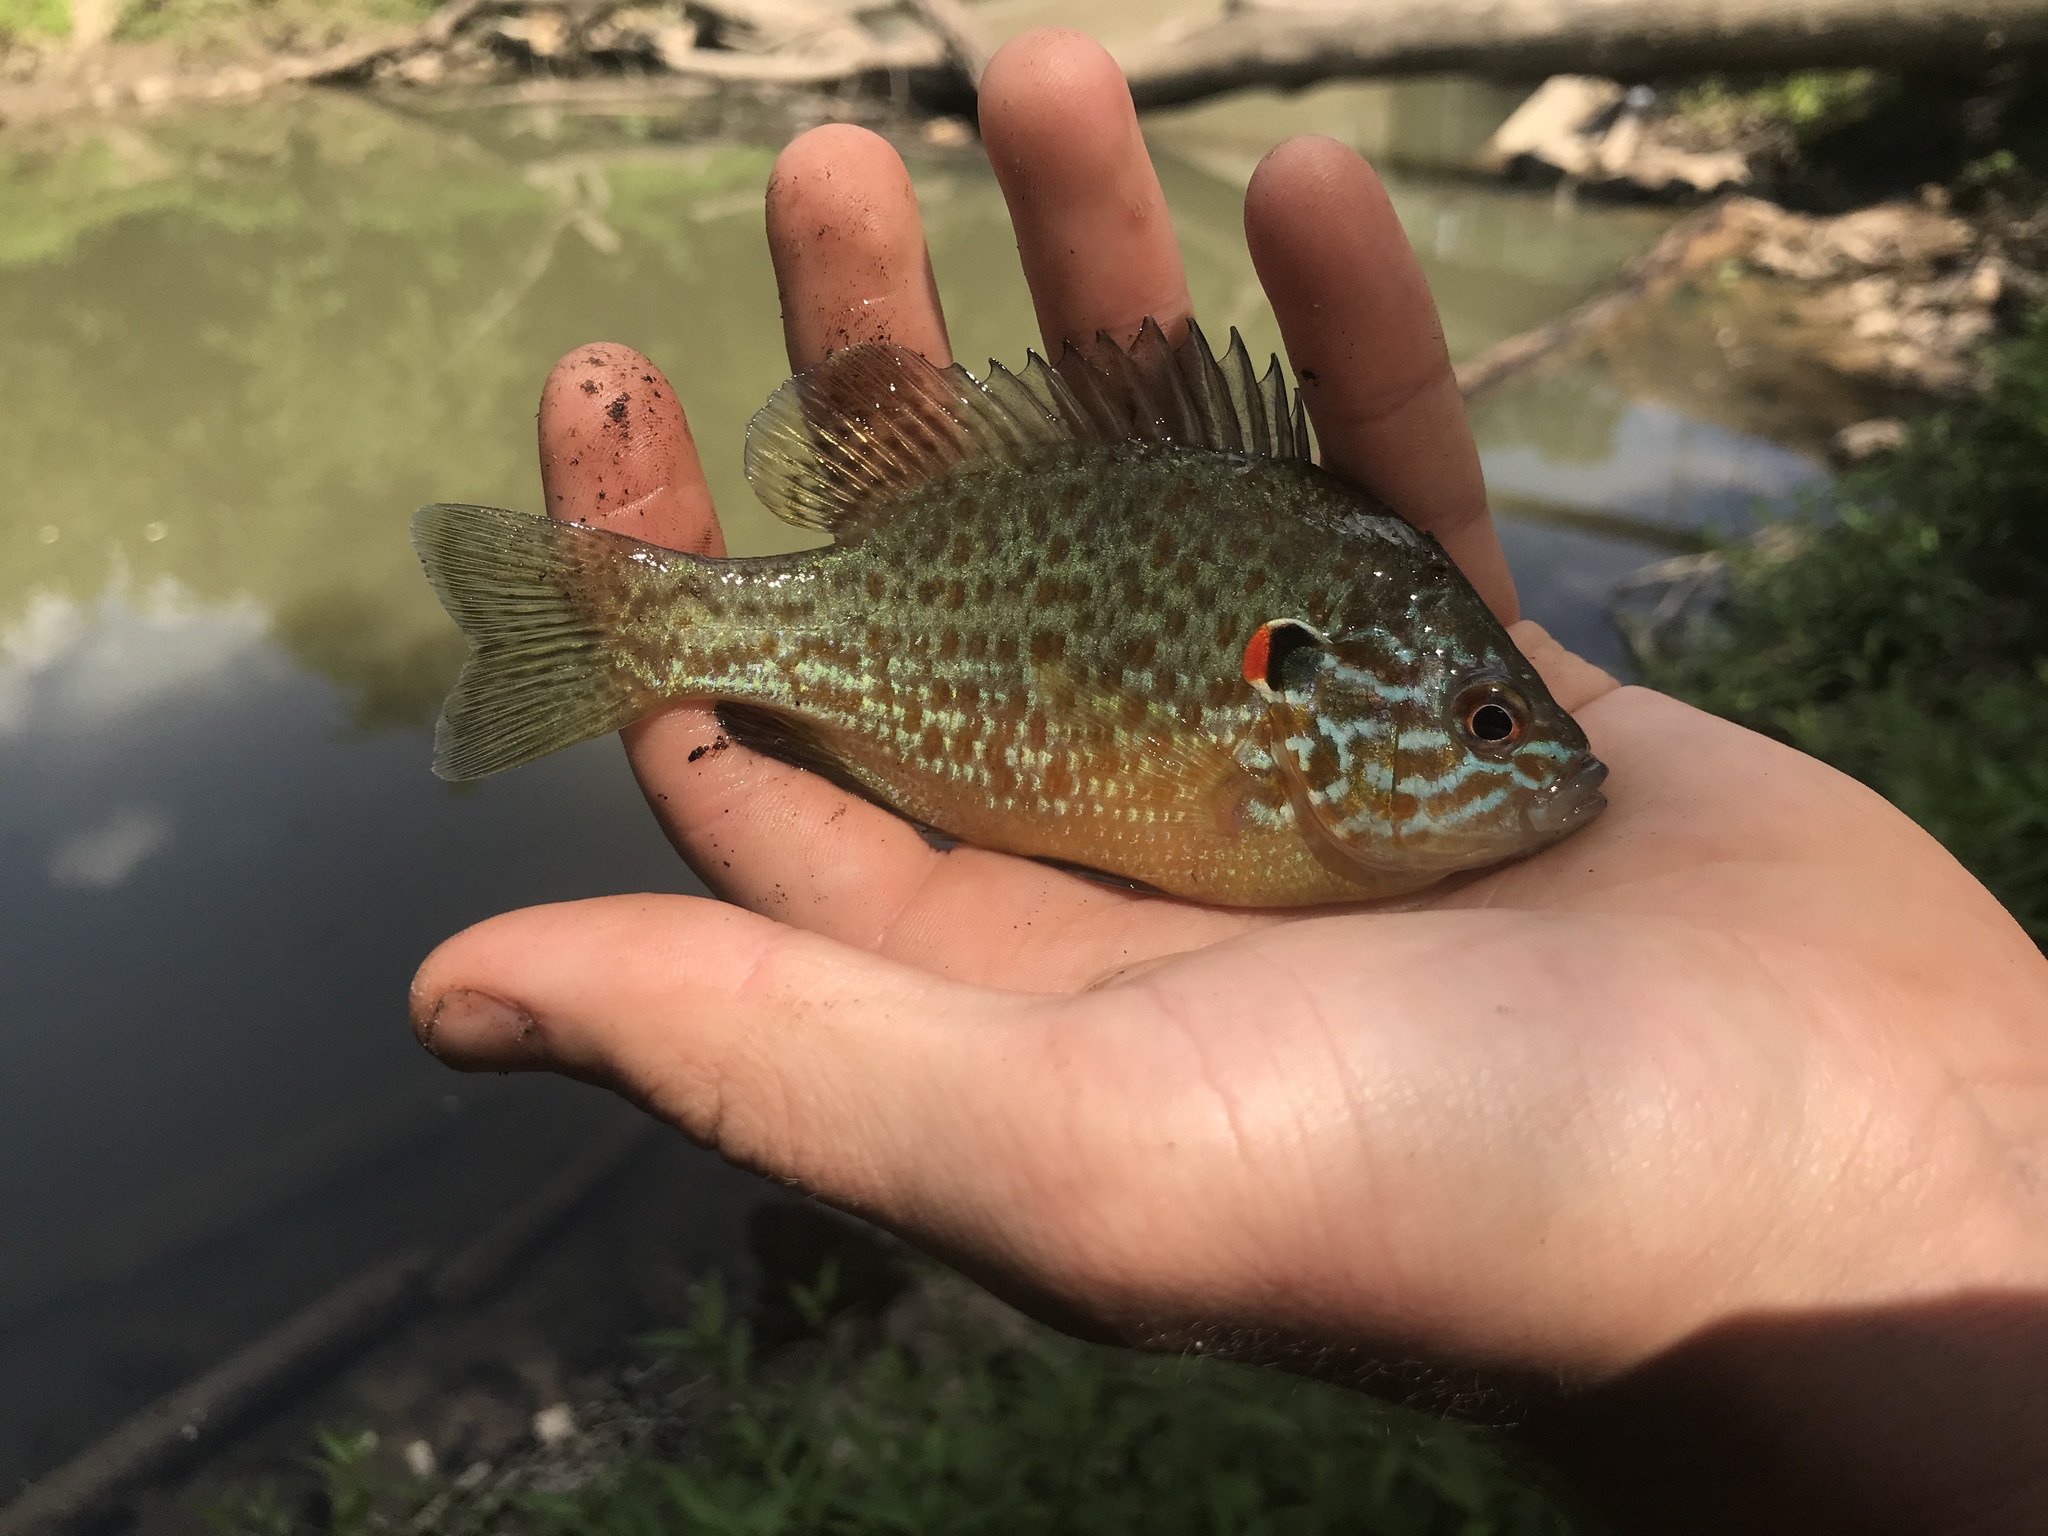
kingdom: Animalia
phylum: Chordata
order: Perciformes
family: Centrarchidae
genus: Lepomis
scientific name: Lepomis gibbosus
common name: Pumpkinseed
